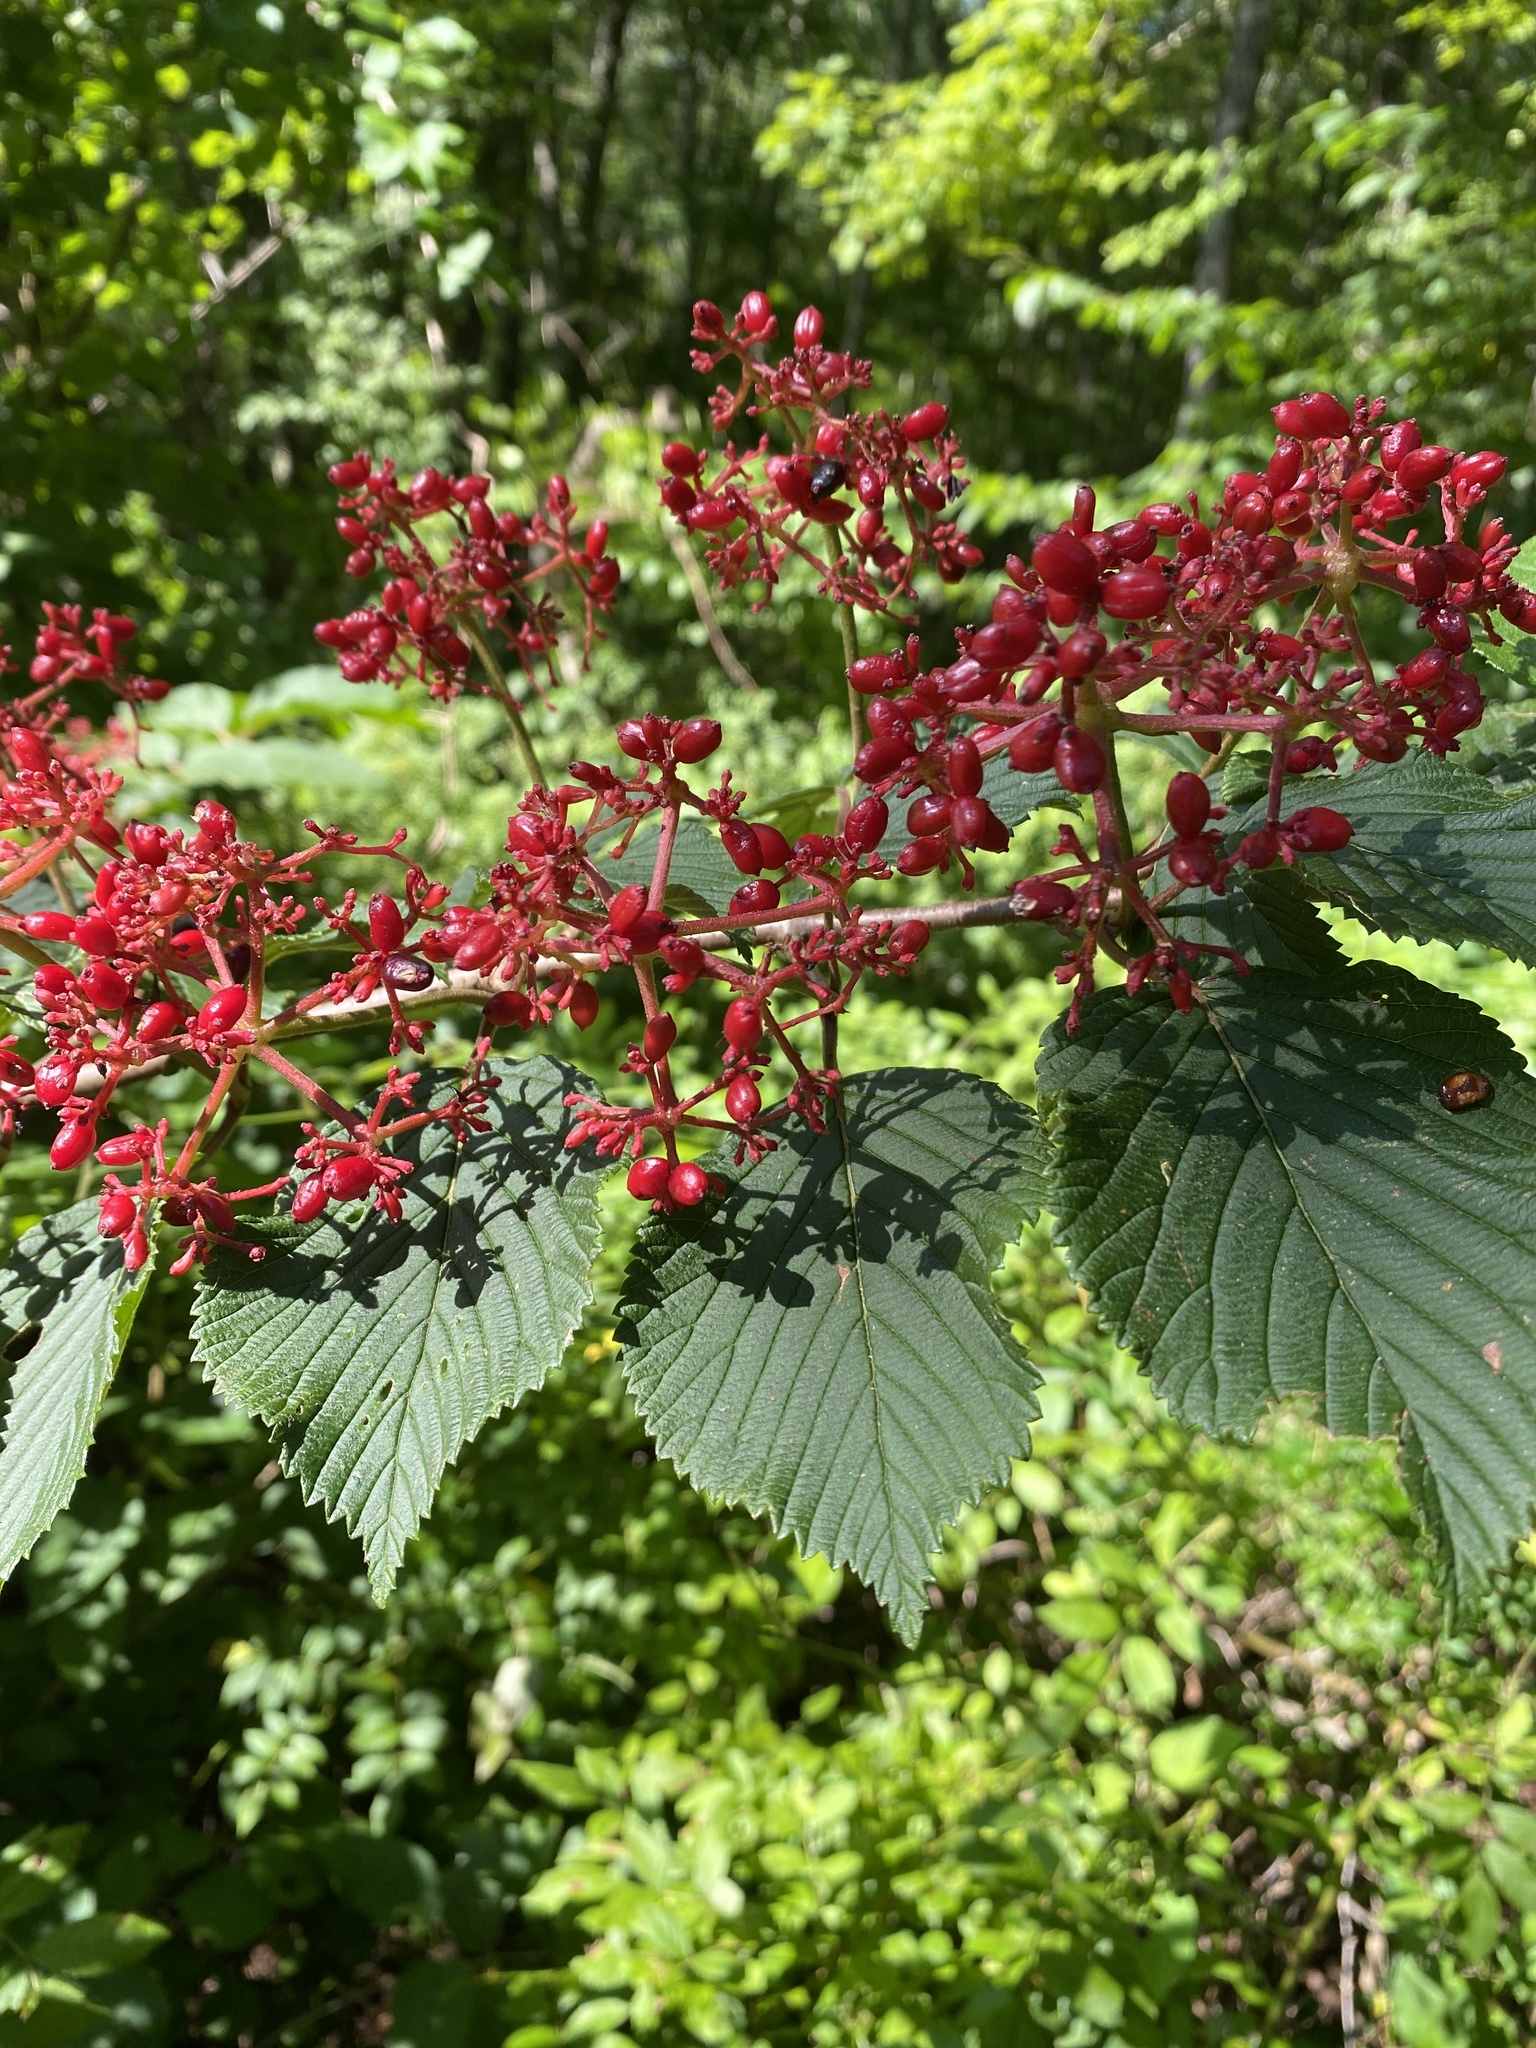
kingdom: Plantae
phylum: Tracheophyta
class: Magnoliopsida
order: Dipsacales
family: Viburnaceae
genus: Viburnum
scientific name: Viburnum plicatum
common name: Japanese snowball
